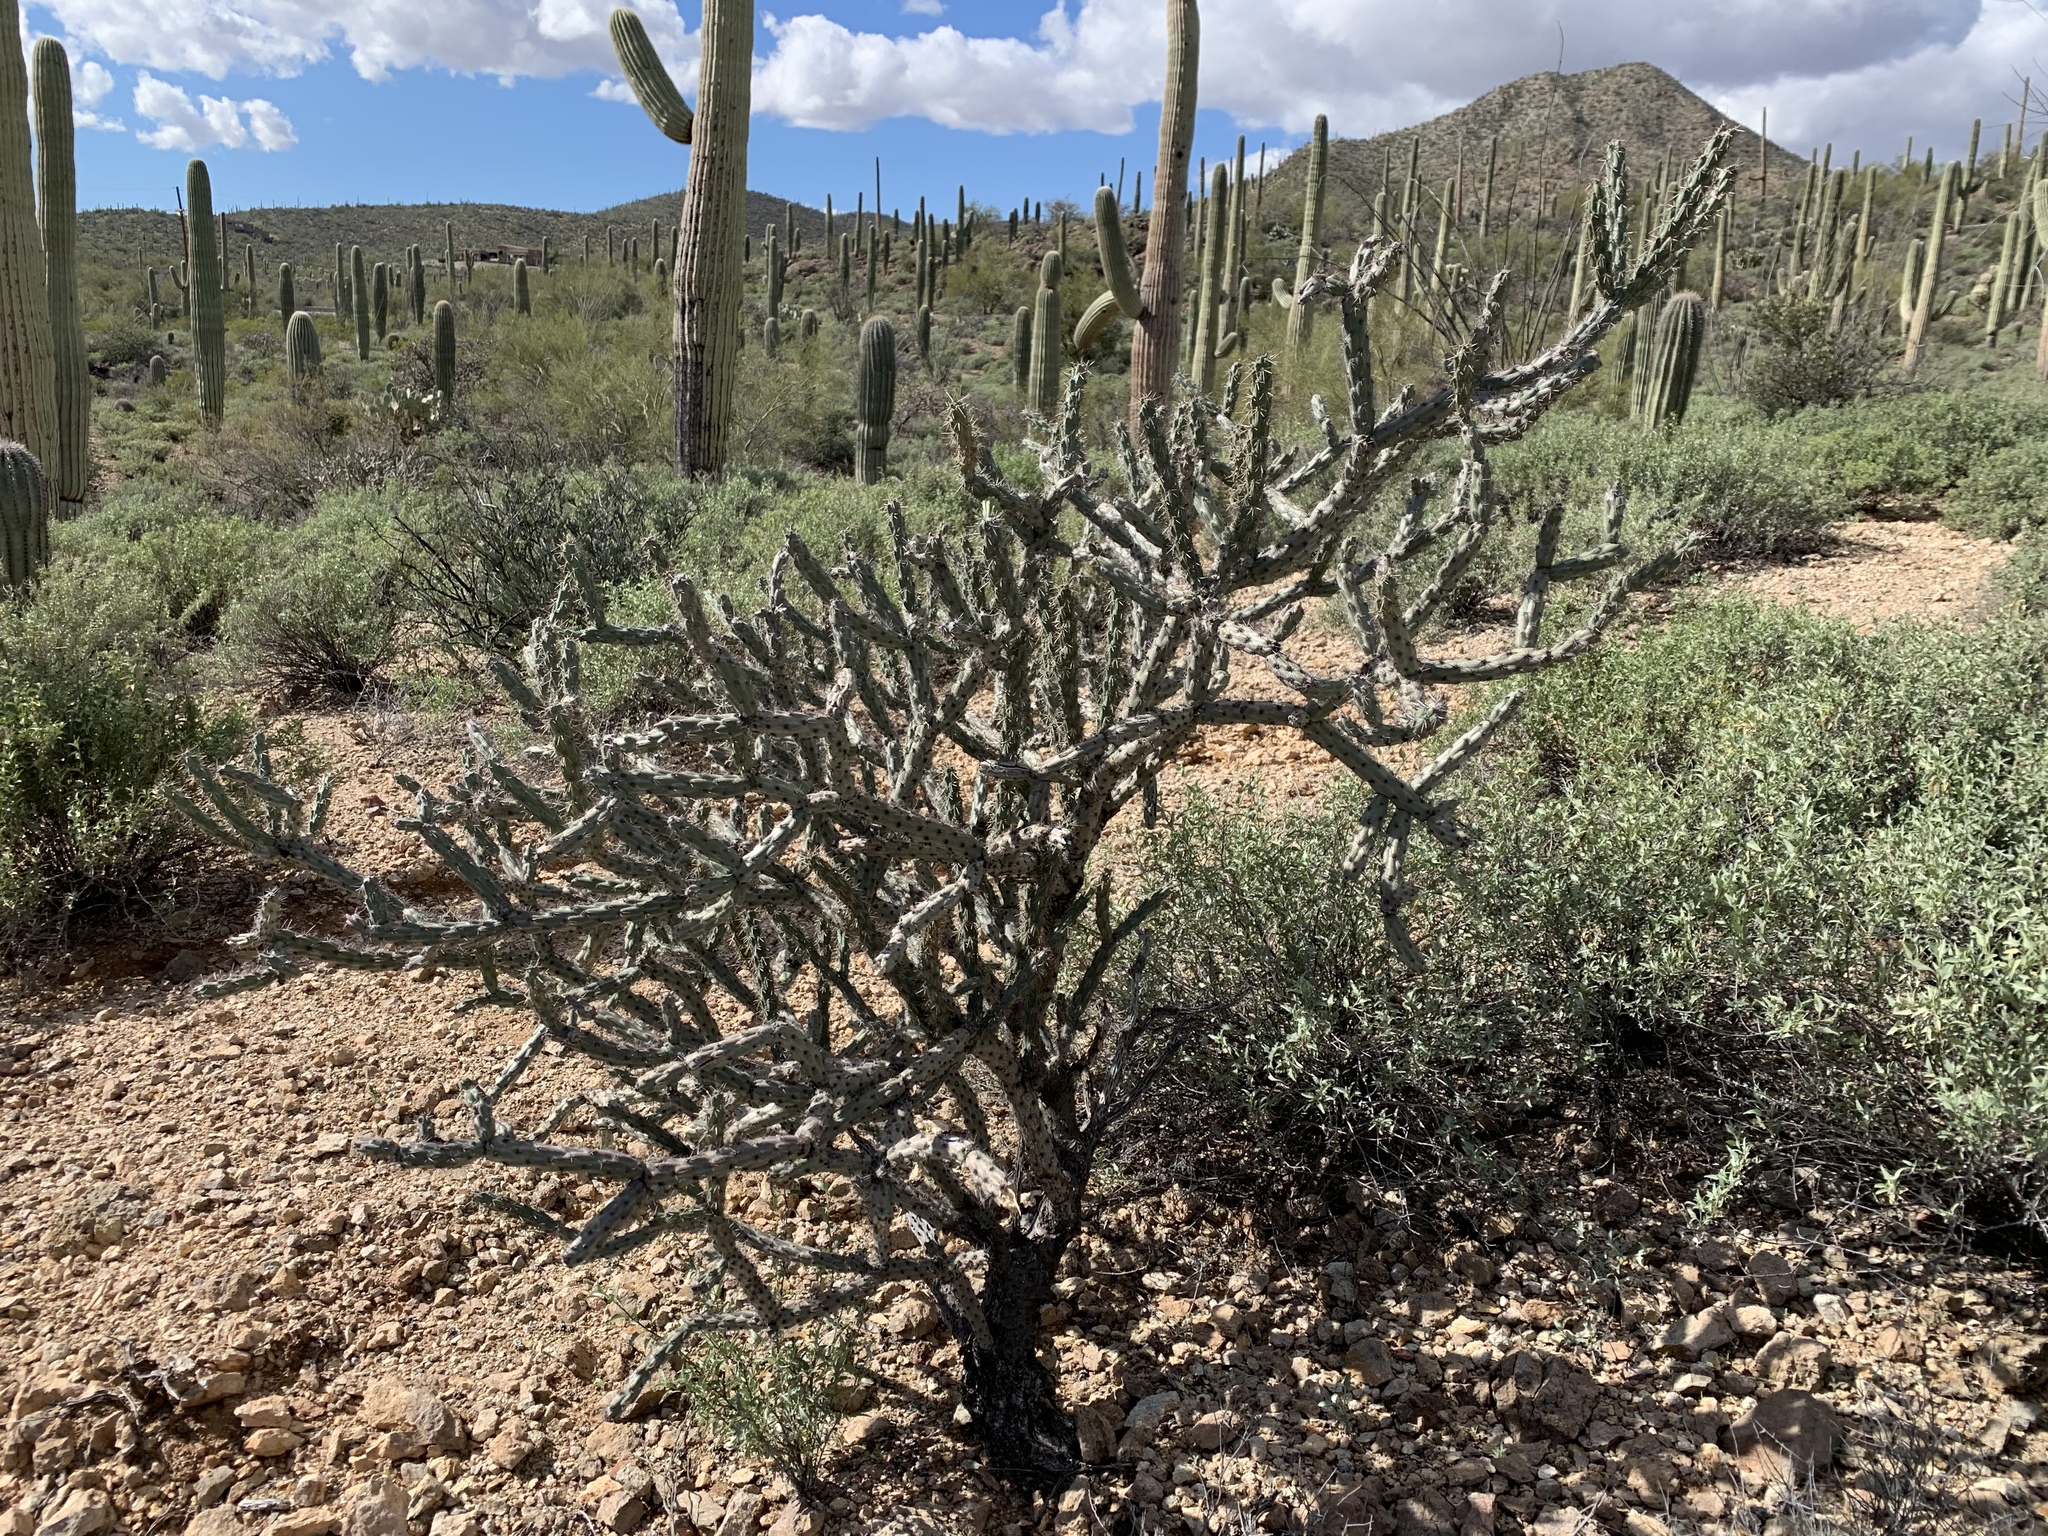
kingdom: Plantae
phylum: Tracheophyta
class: Magnoliopsida
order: Caryophyllales
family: Cactaceae
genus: Cylindropuntia
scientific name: Cylindropuntia acanthocarpa
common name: Buckhorn cholla
